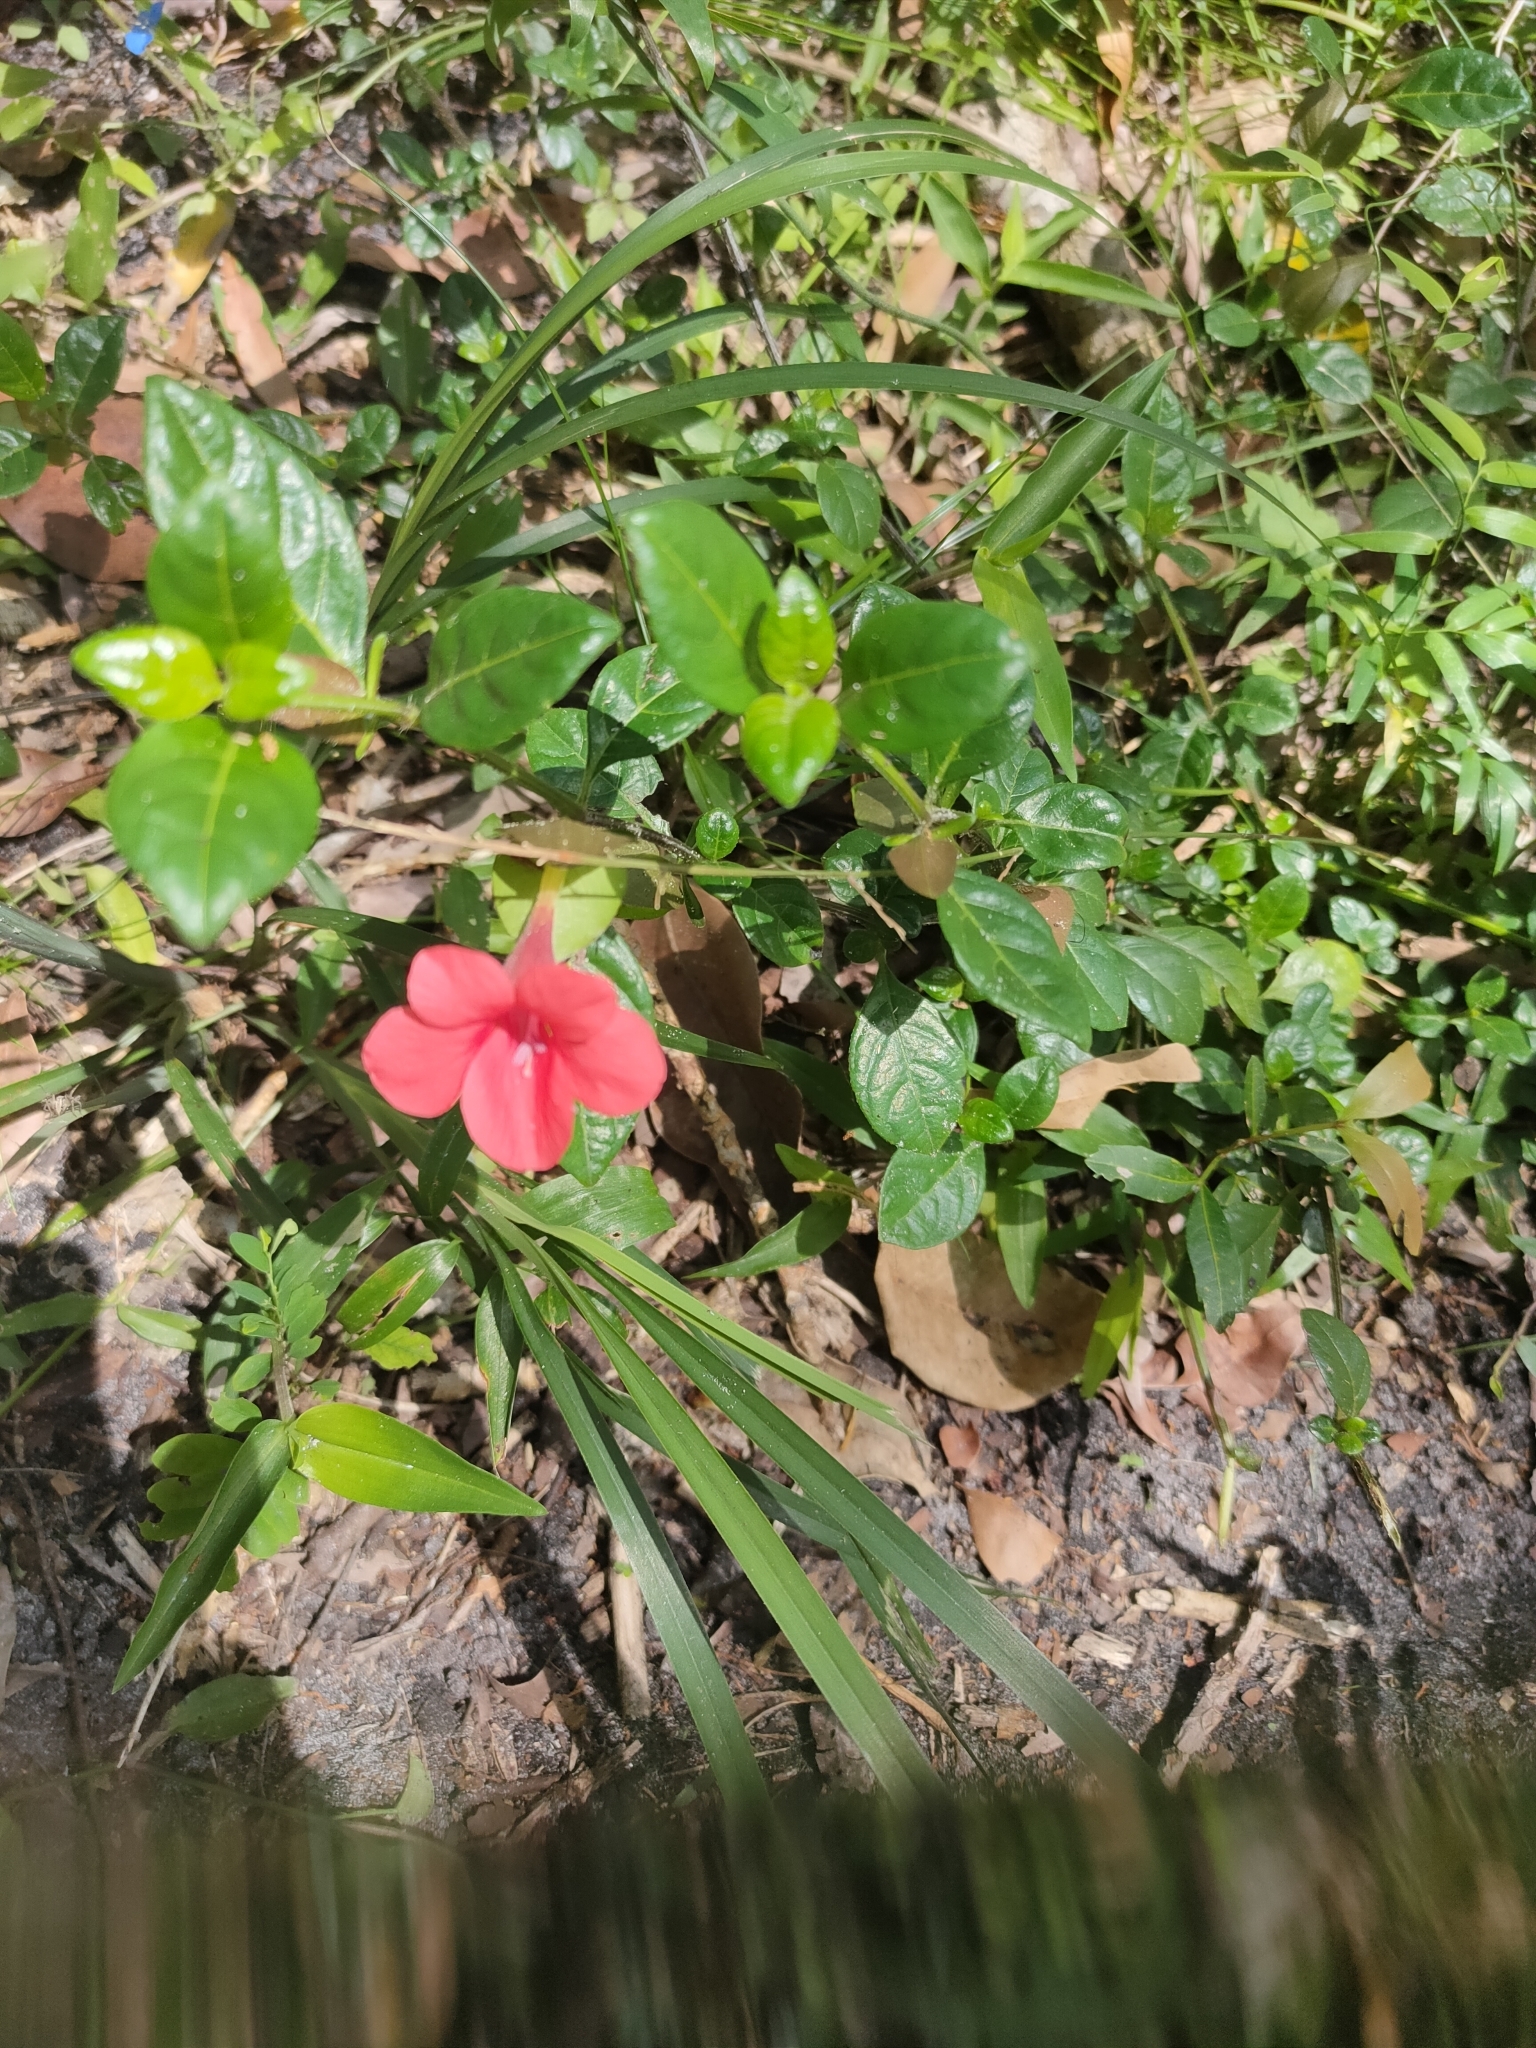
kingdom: Plantae
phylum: Tracheophyta
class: Magnoliopsida
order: Lamiales
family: Acanthaceae
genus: Barleria
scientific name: Barleria repens
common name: Pink-ruellia
